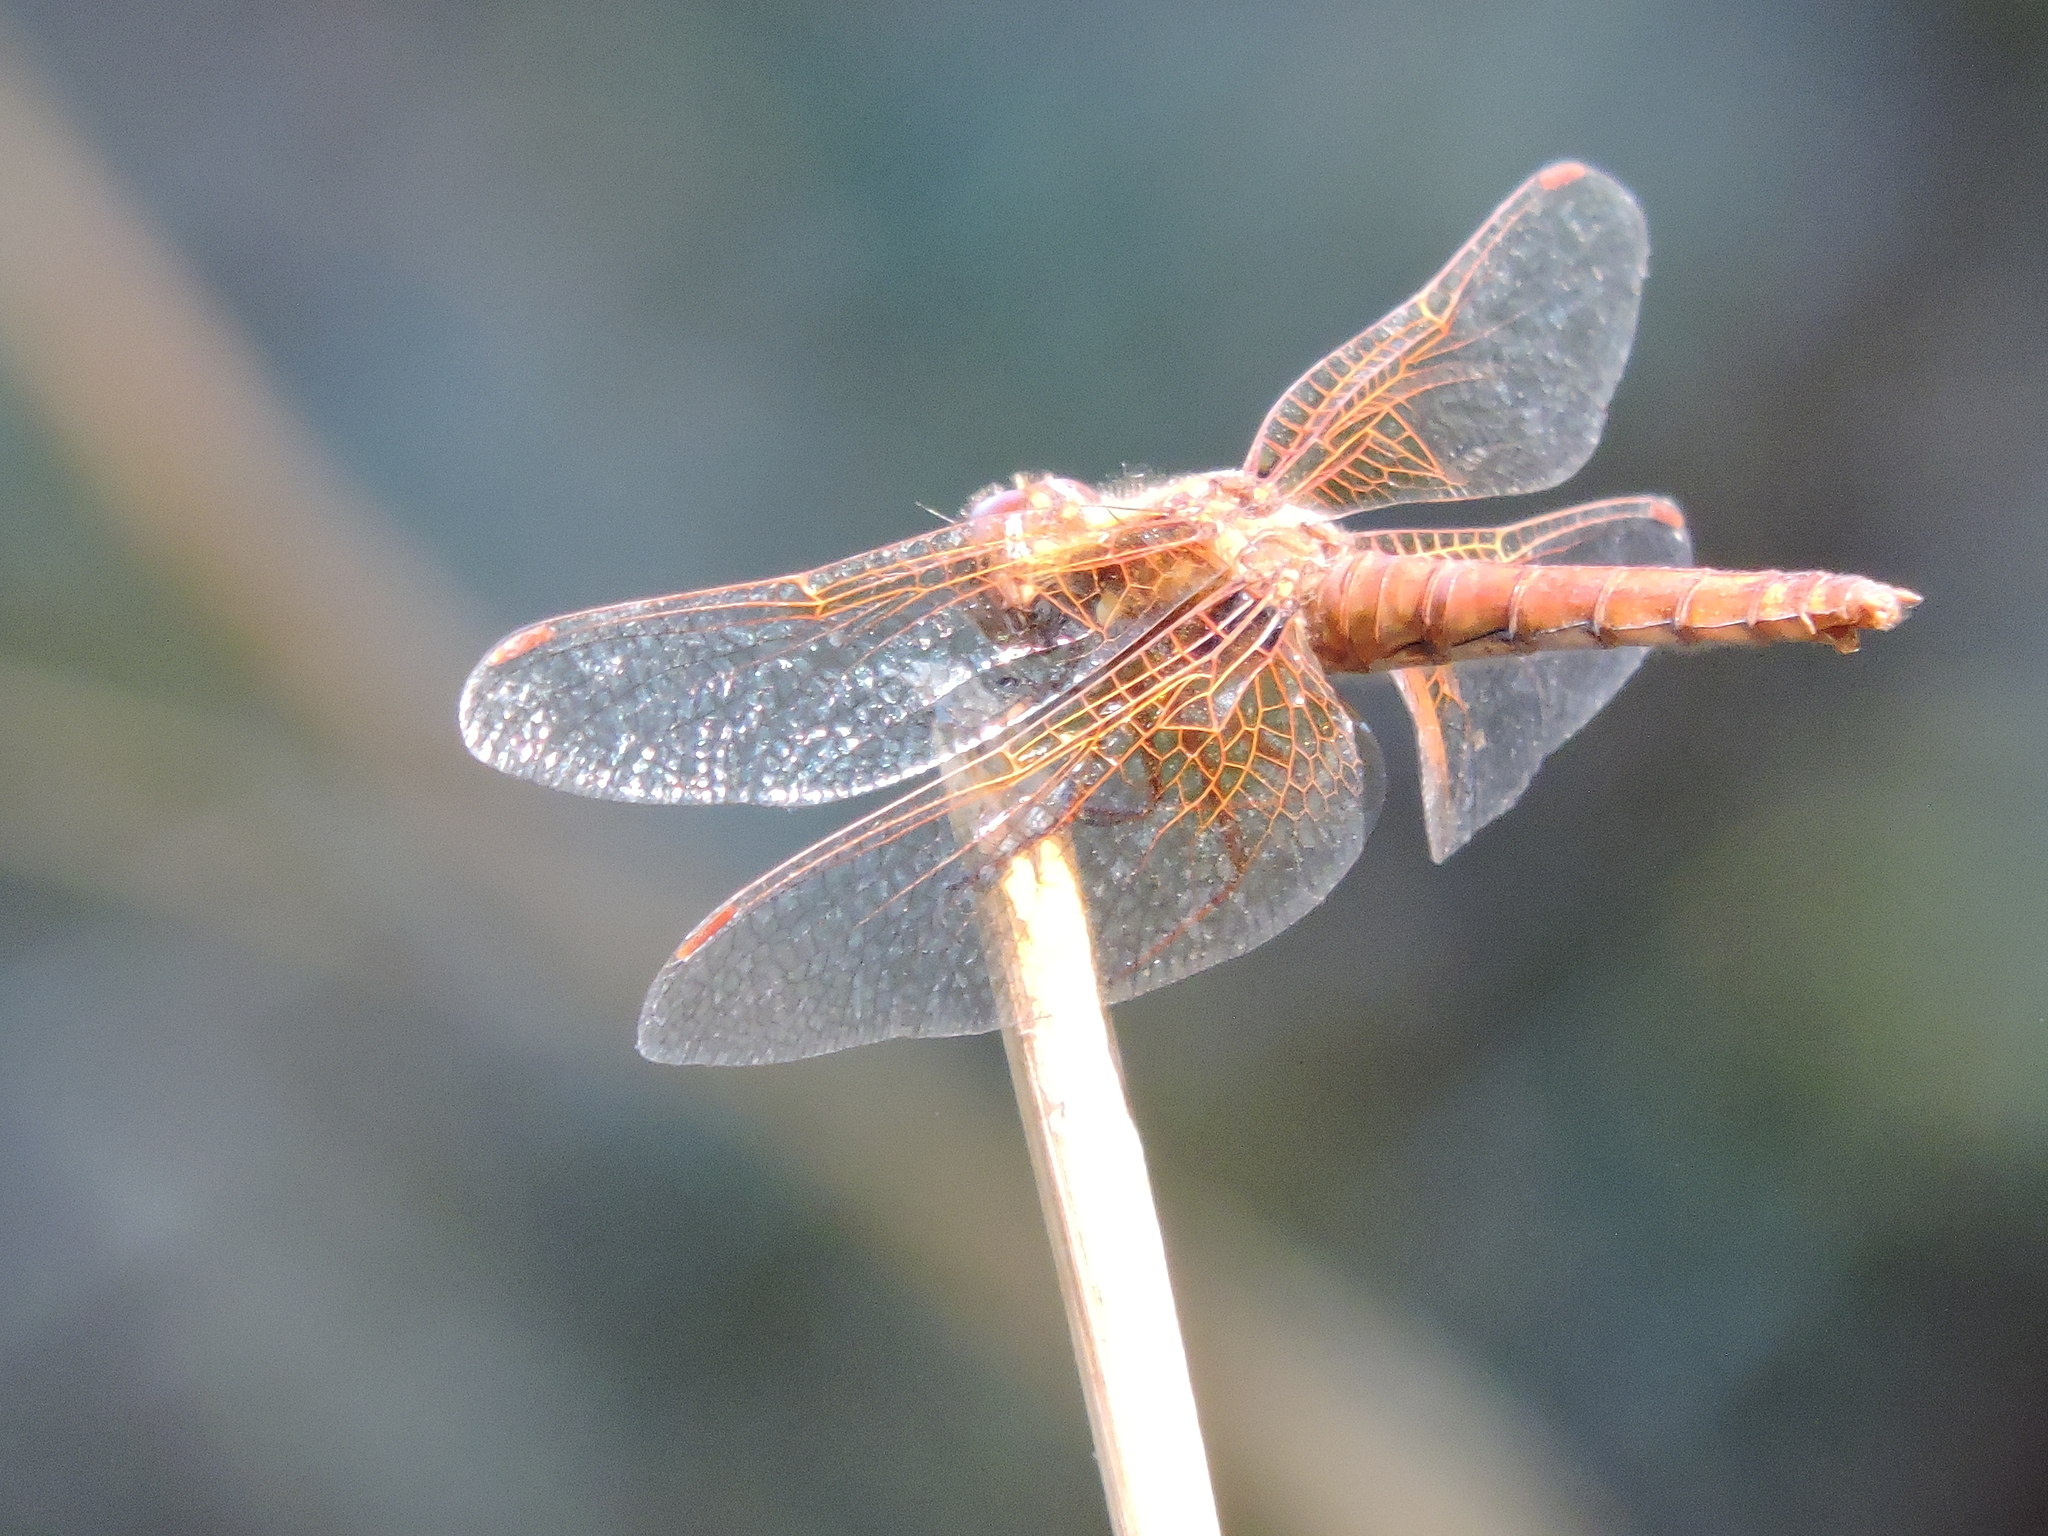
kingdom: Animalia
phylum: Arthropoda
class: Insecta
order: Odonata
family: Libellulidae
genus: Sympetrum
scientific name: Sympetrum illotum
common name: Cardinal meadowhawk
